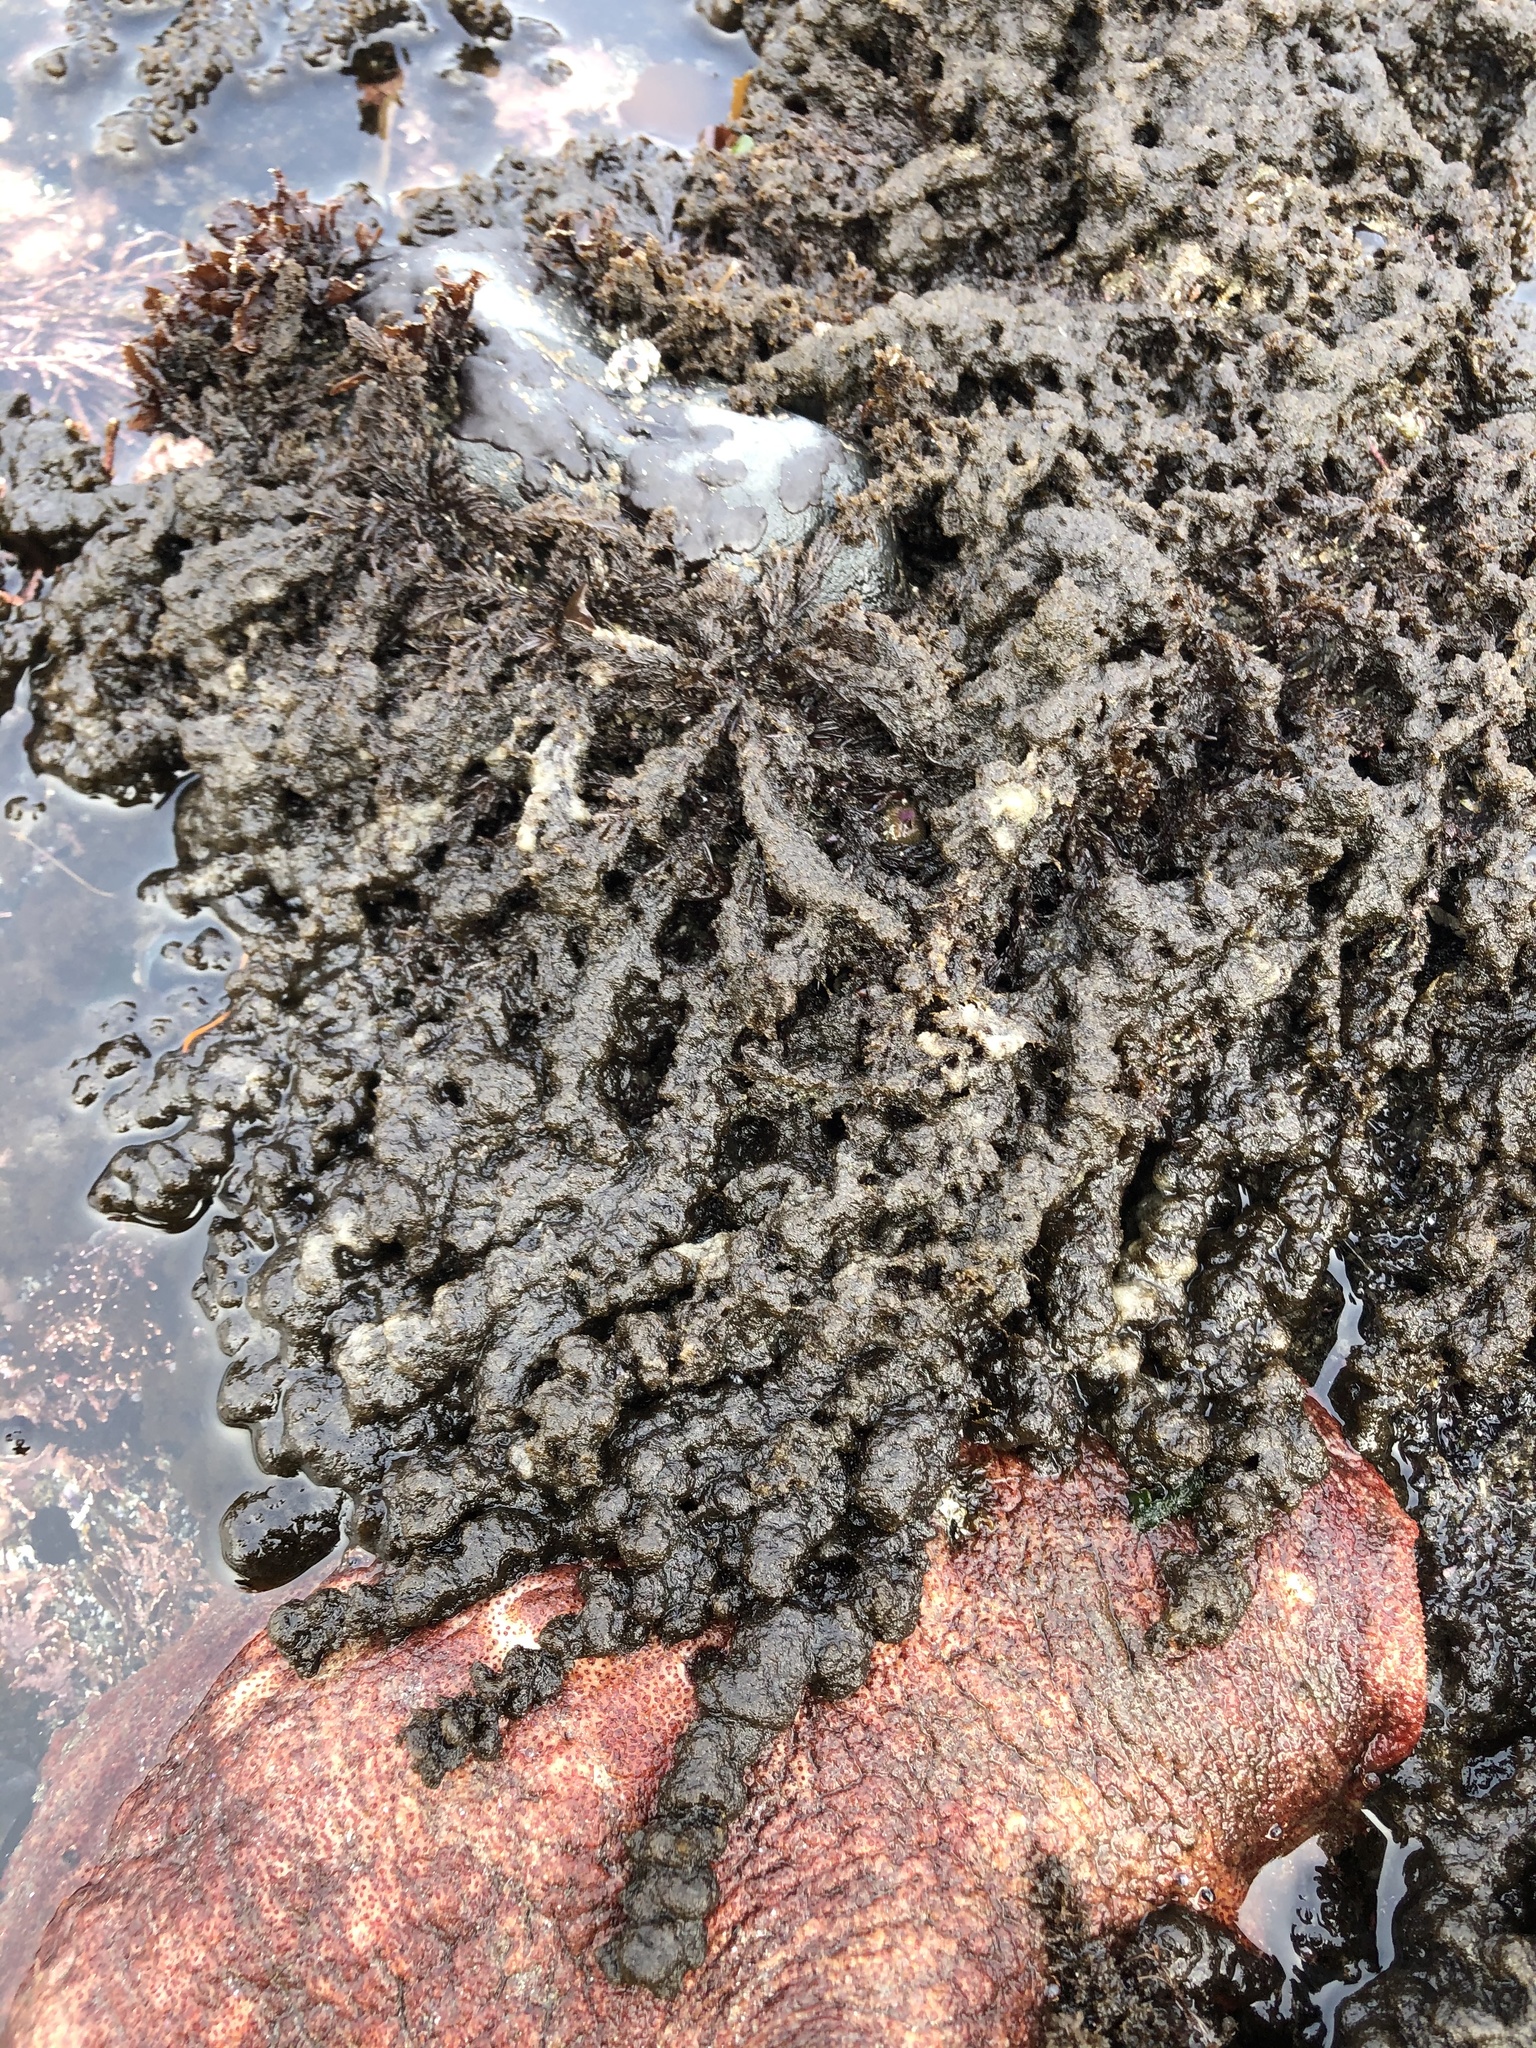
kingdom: Plantae
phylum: Rhodophyta
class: Florideophyceae
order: Ceramiales
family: Rhodomelaceae
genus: Neorhodomela
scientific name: Neorhodomela larix
